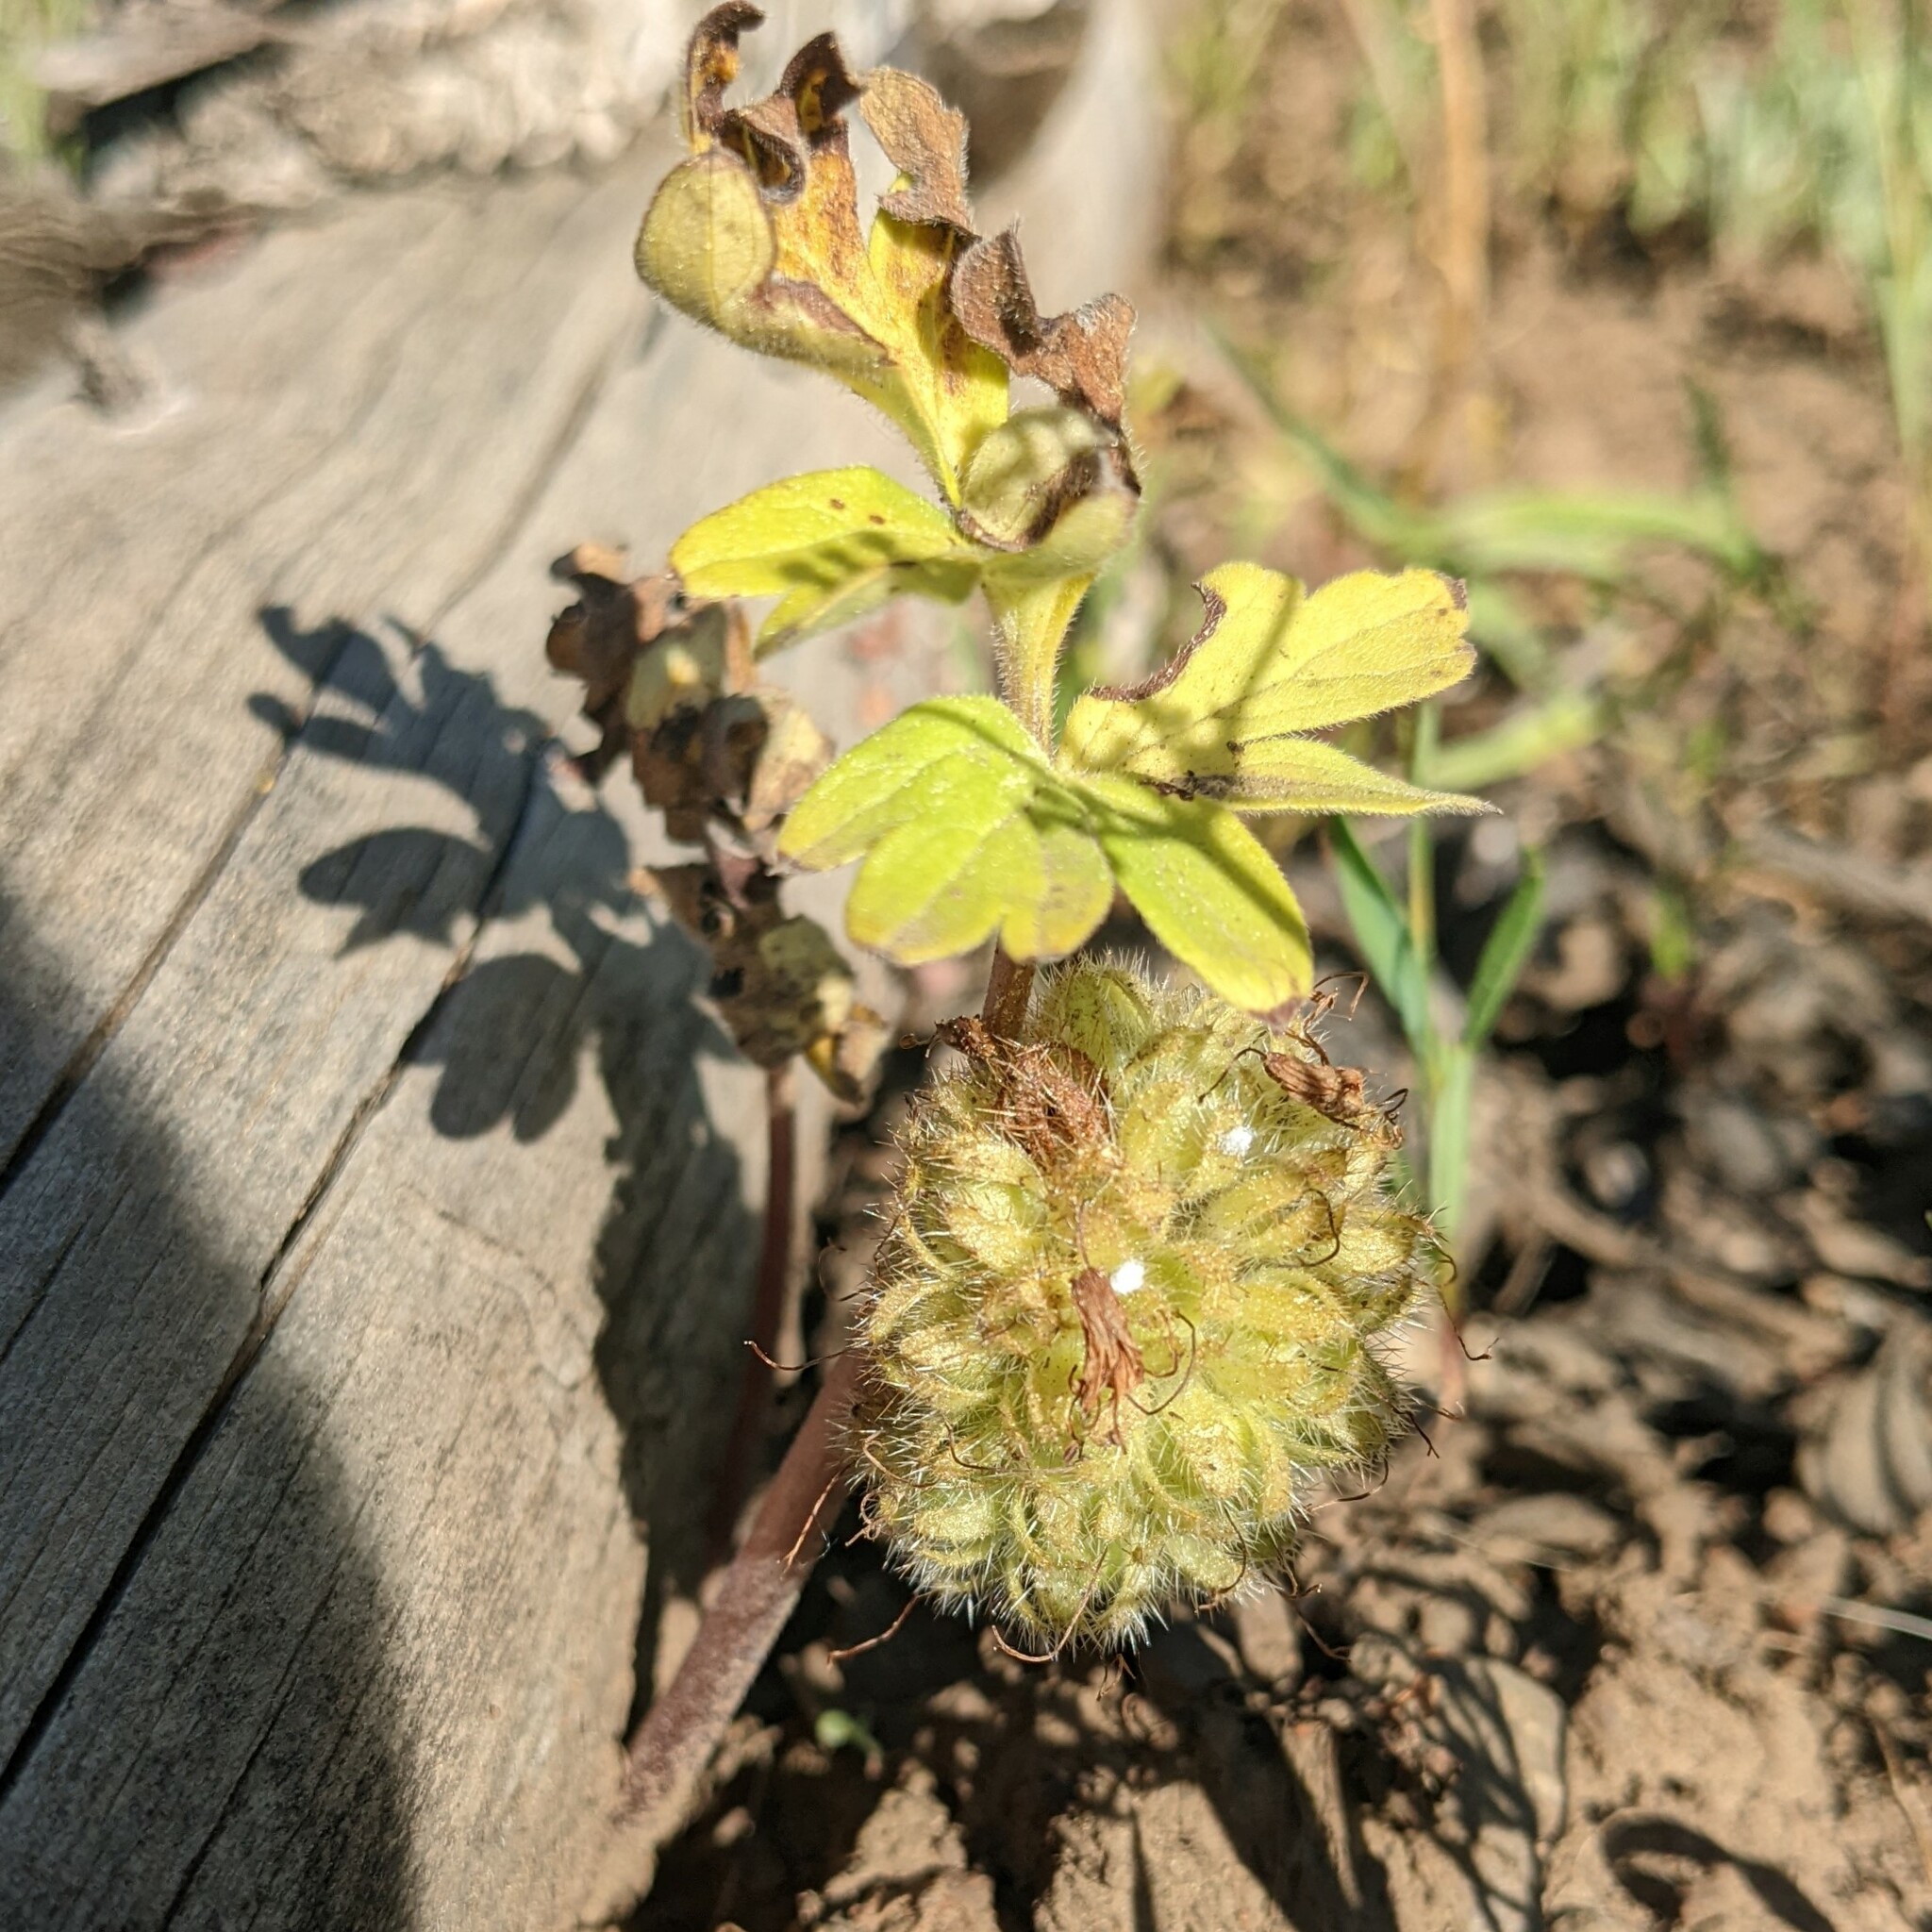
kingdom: Plantae
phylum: Tracheophyta
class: Magnoliopsida
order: Boraginales
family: Hydrophyllaceae
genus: Hydrophyllum
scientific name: Hydrophyllum capitatum
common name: Woollen-breeches
